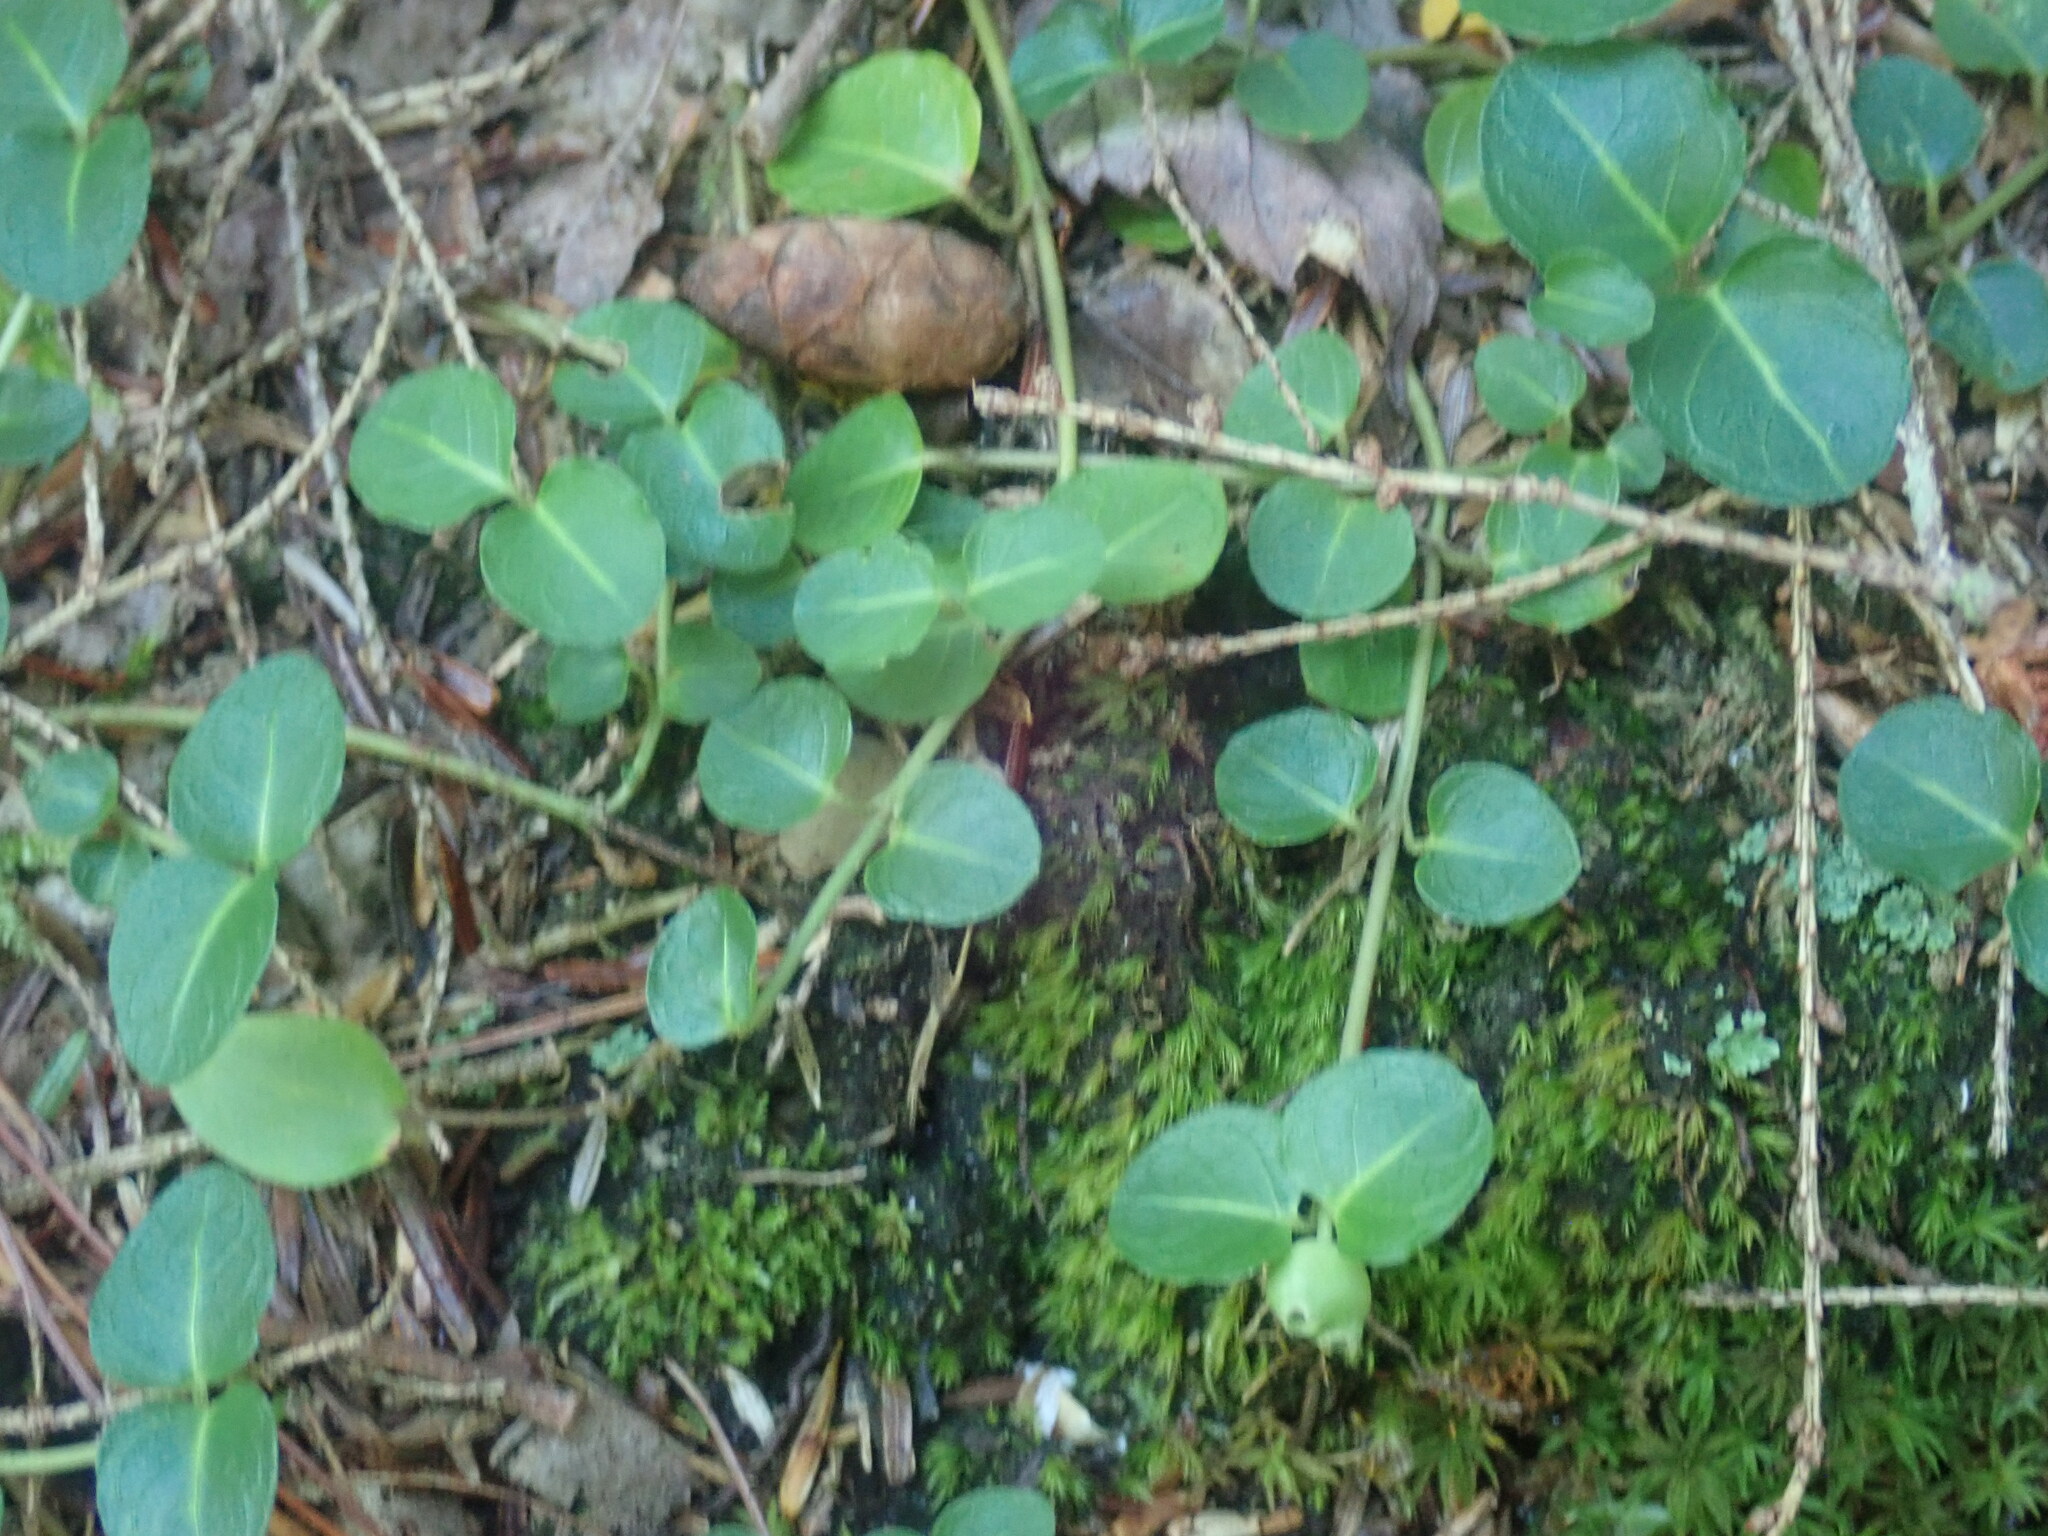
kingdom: Plantae
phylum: Tracheophyta
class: Magnoliopsida
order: Gentianales
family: Rubiaceae
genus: Mitchella
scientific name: Mitchella repens
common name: Partridge-berry
